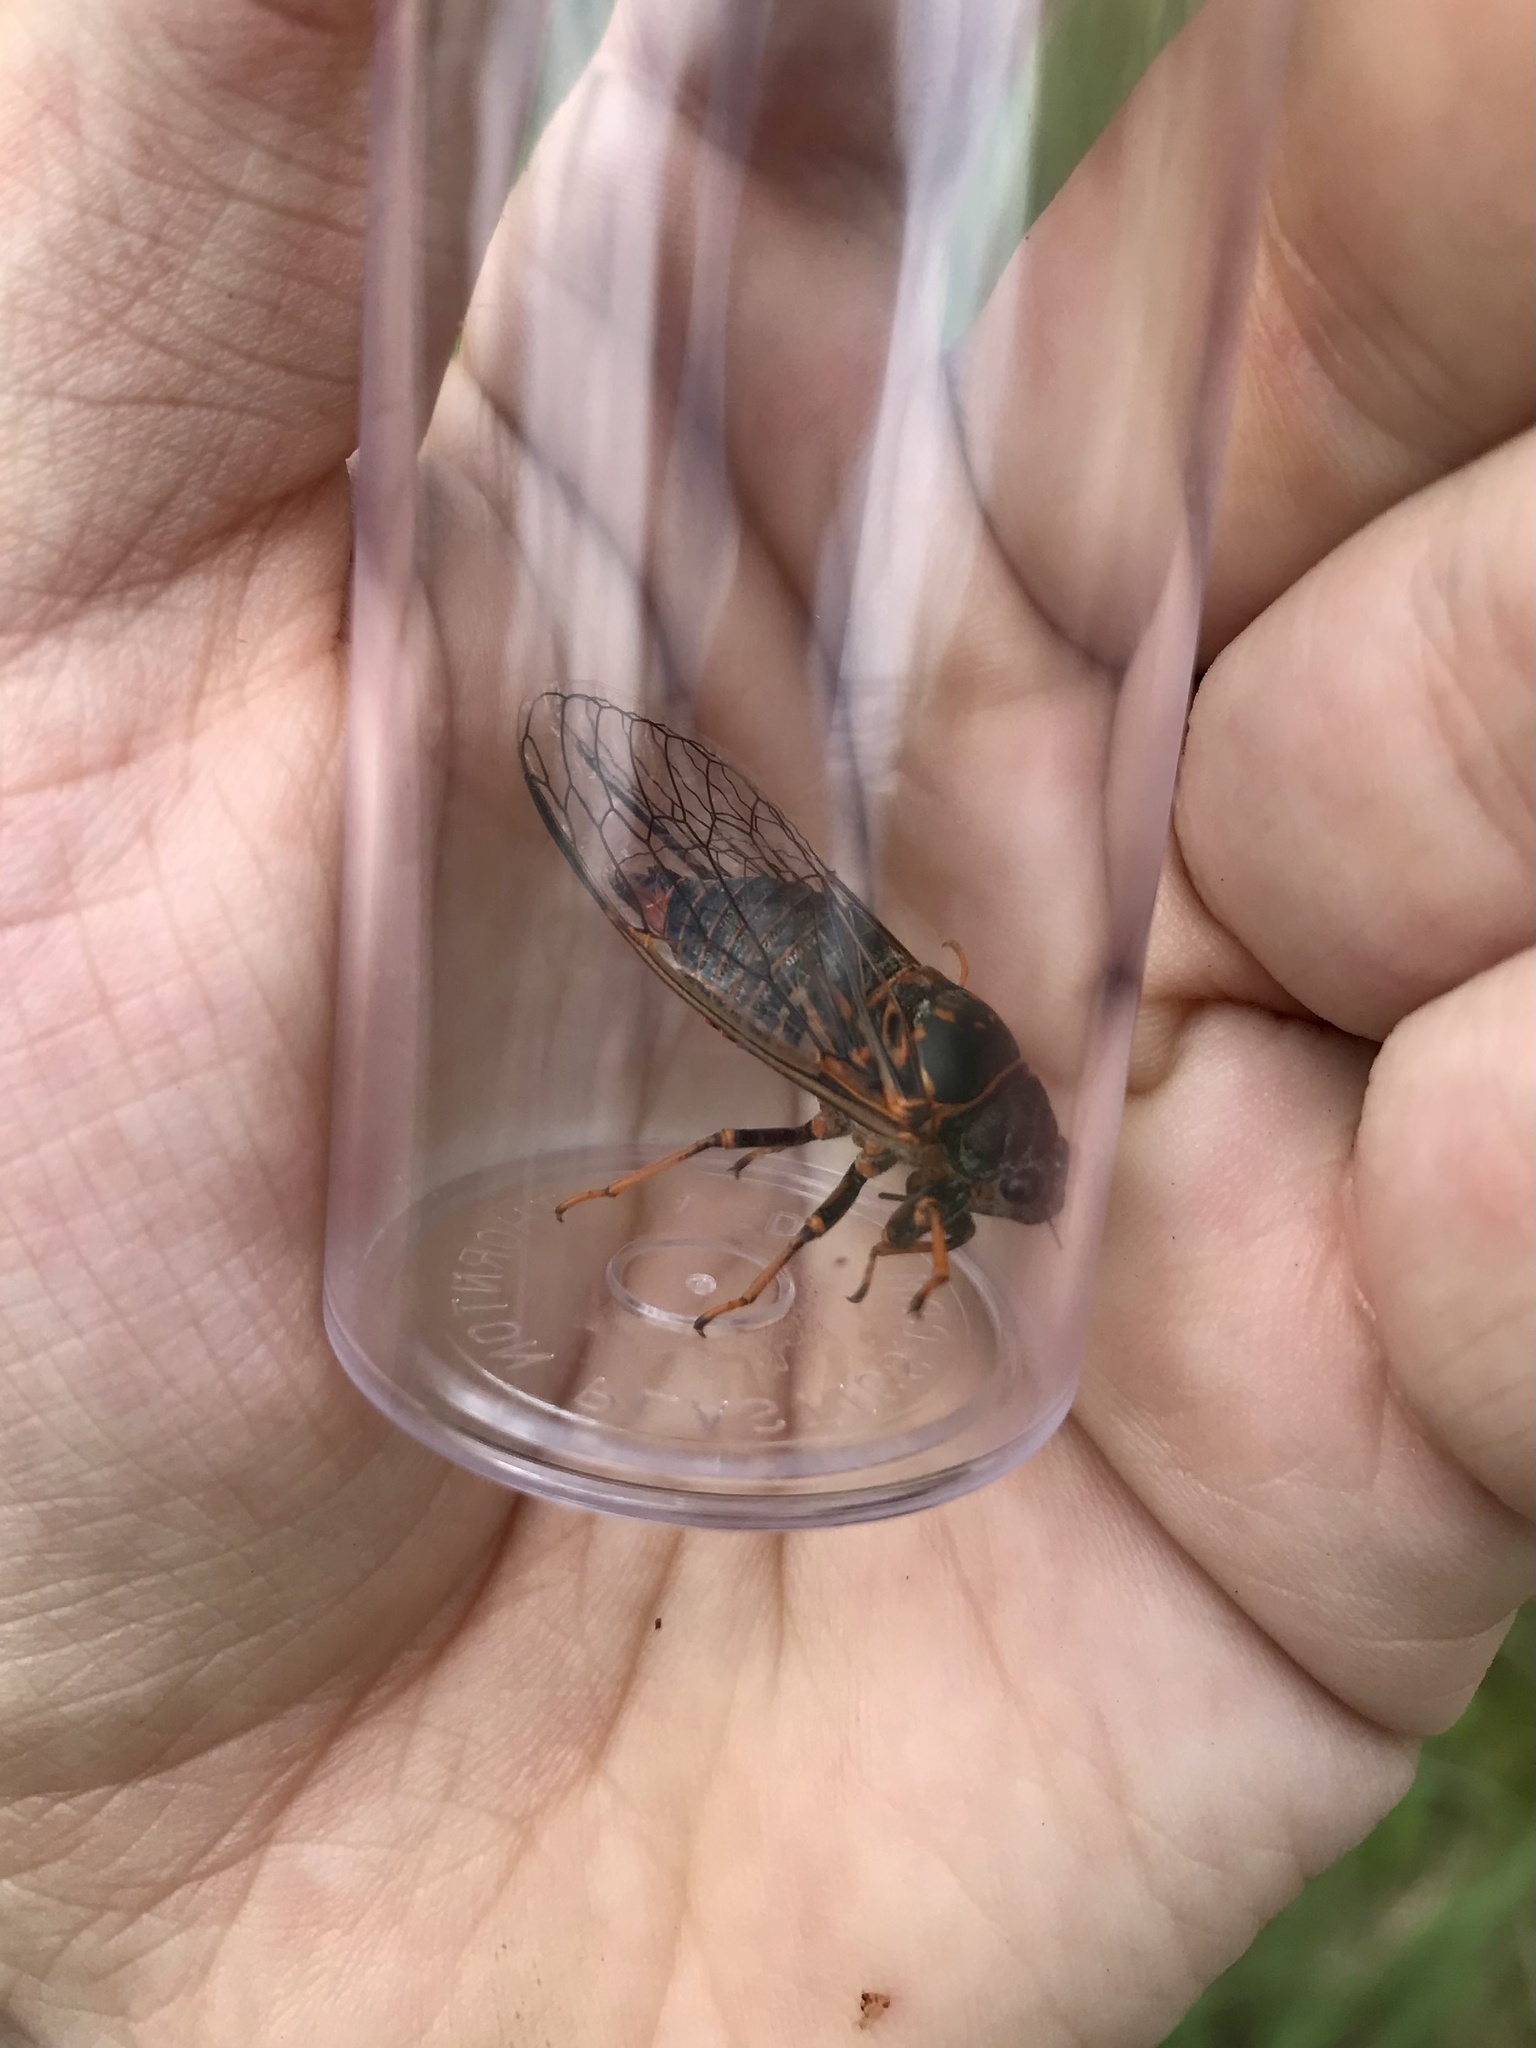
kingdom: Animalia
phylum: Arthropoda
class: Insecta
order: Hemiptera
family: Cicadidae
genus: Okanagana
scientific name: Okanagana rimosa
